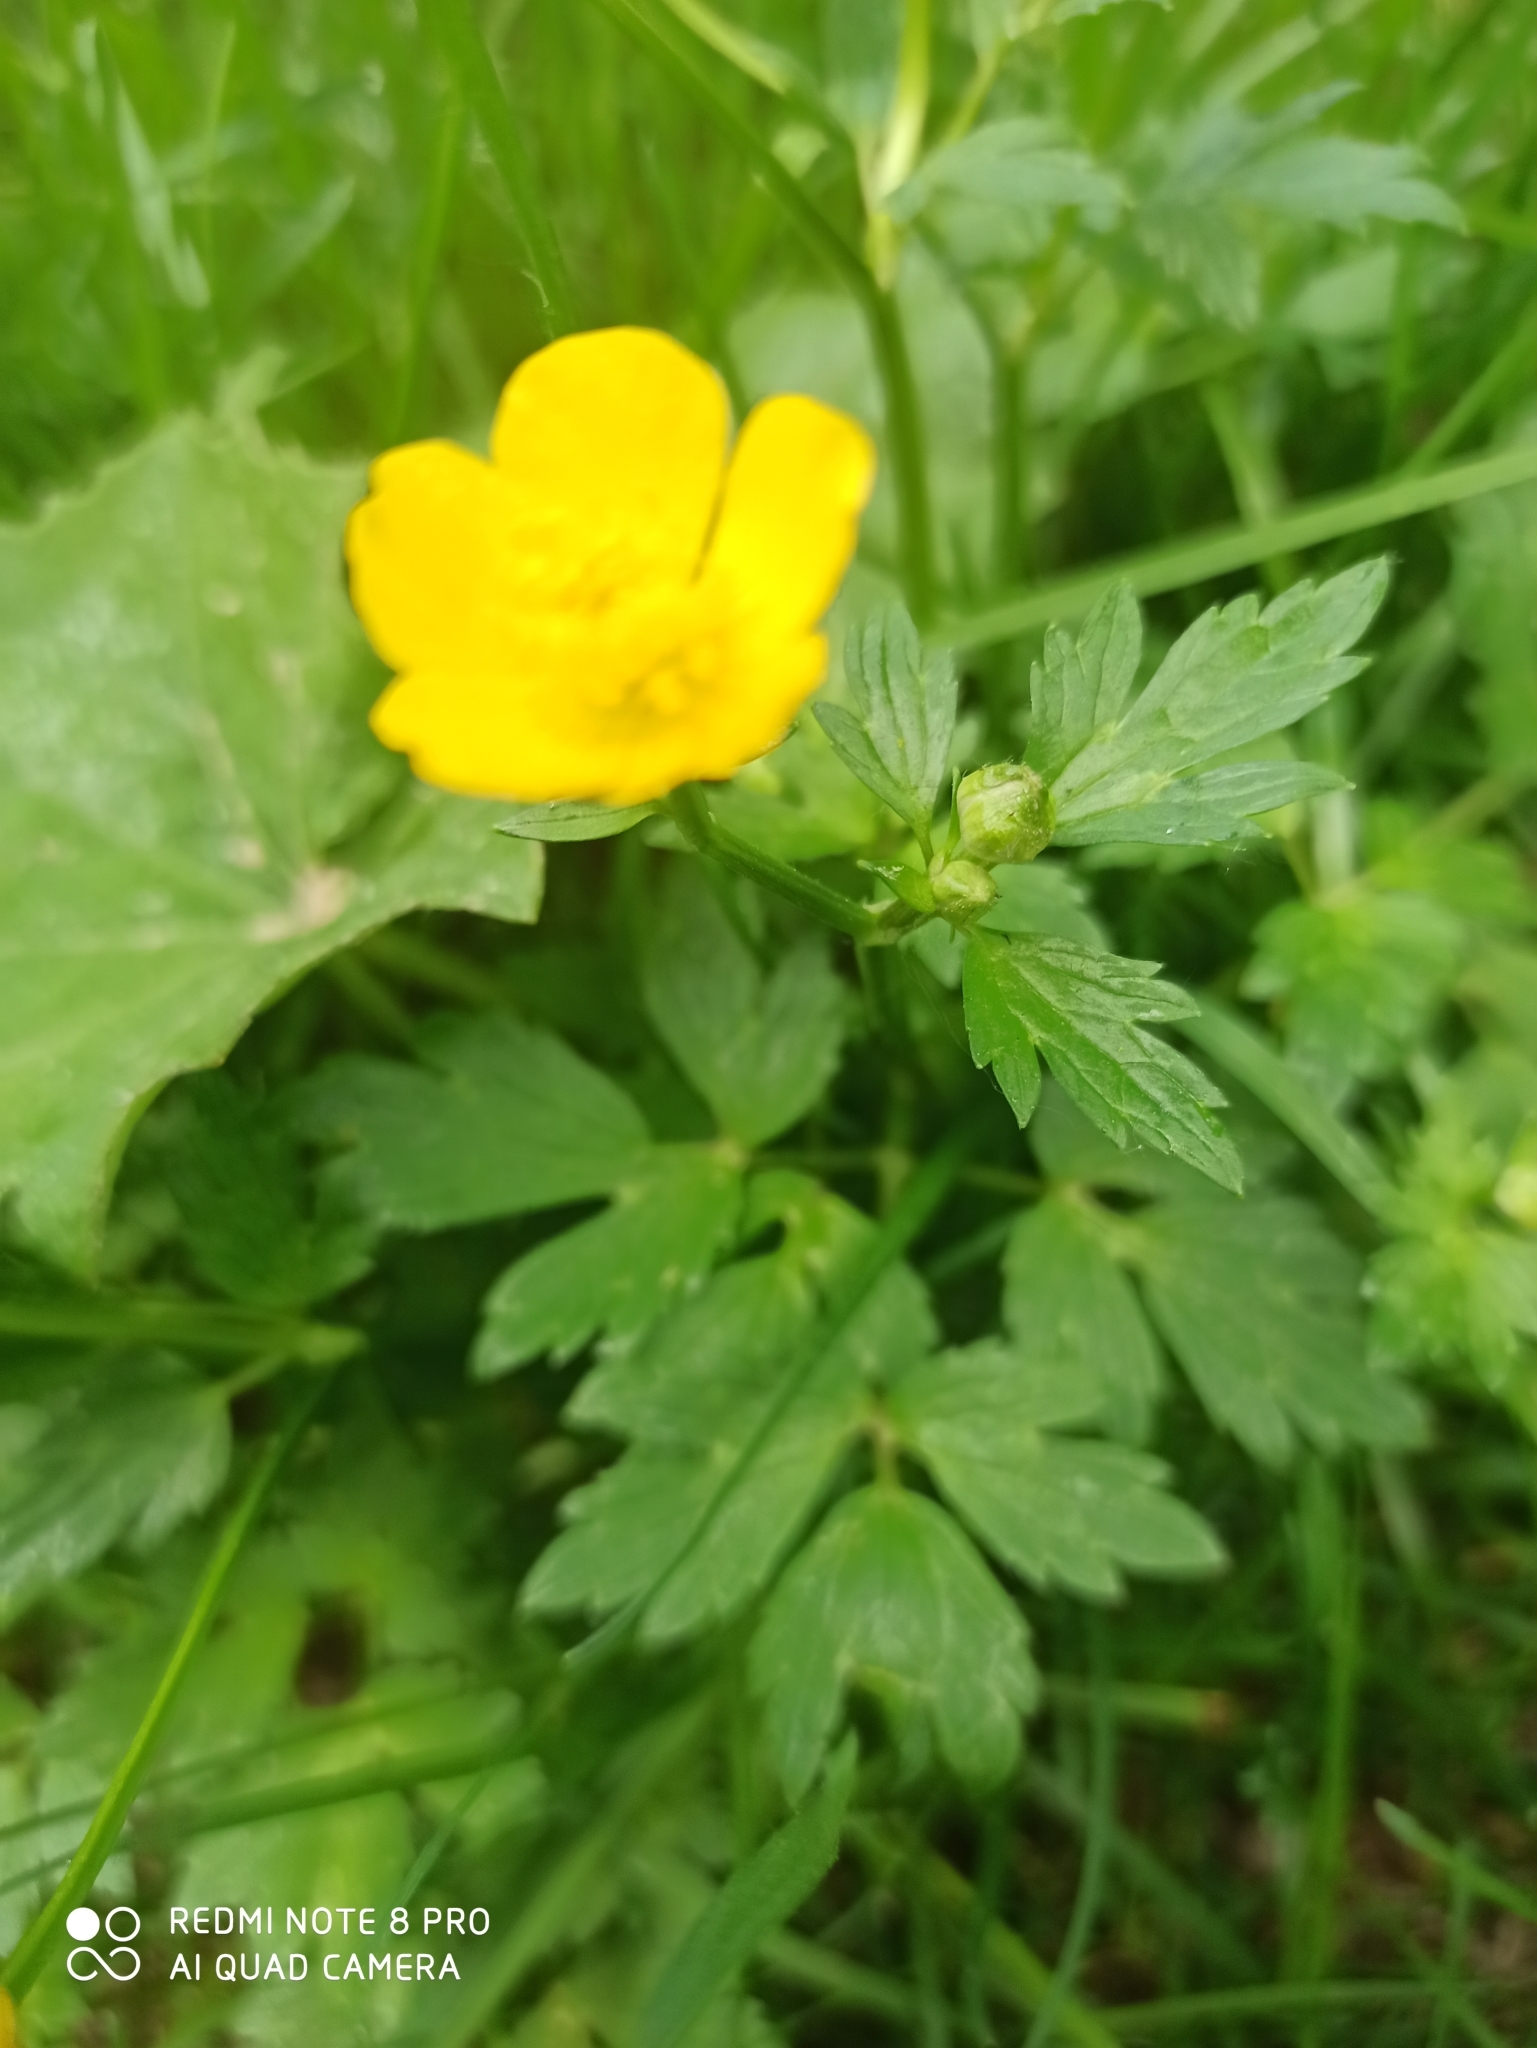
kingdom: Plantae
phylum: Tracheophyta
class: Magnoliopsida
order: Ranunculales
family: Ranunculaceae
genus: Ranunculus
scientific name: Ranunculus repens
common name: Creeping buttercup
